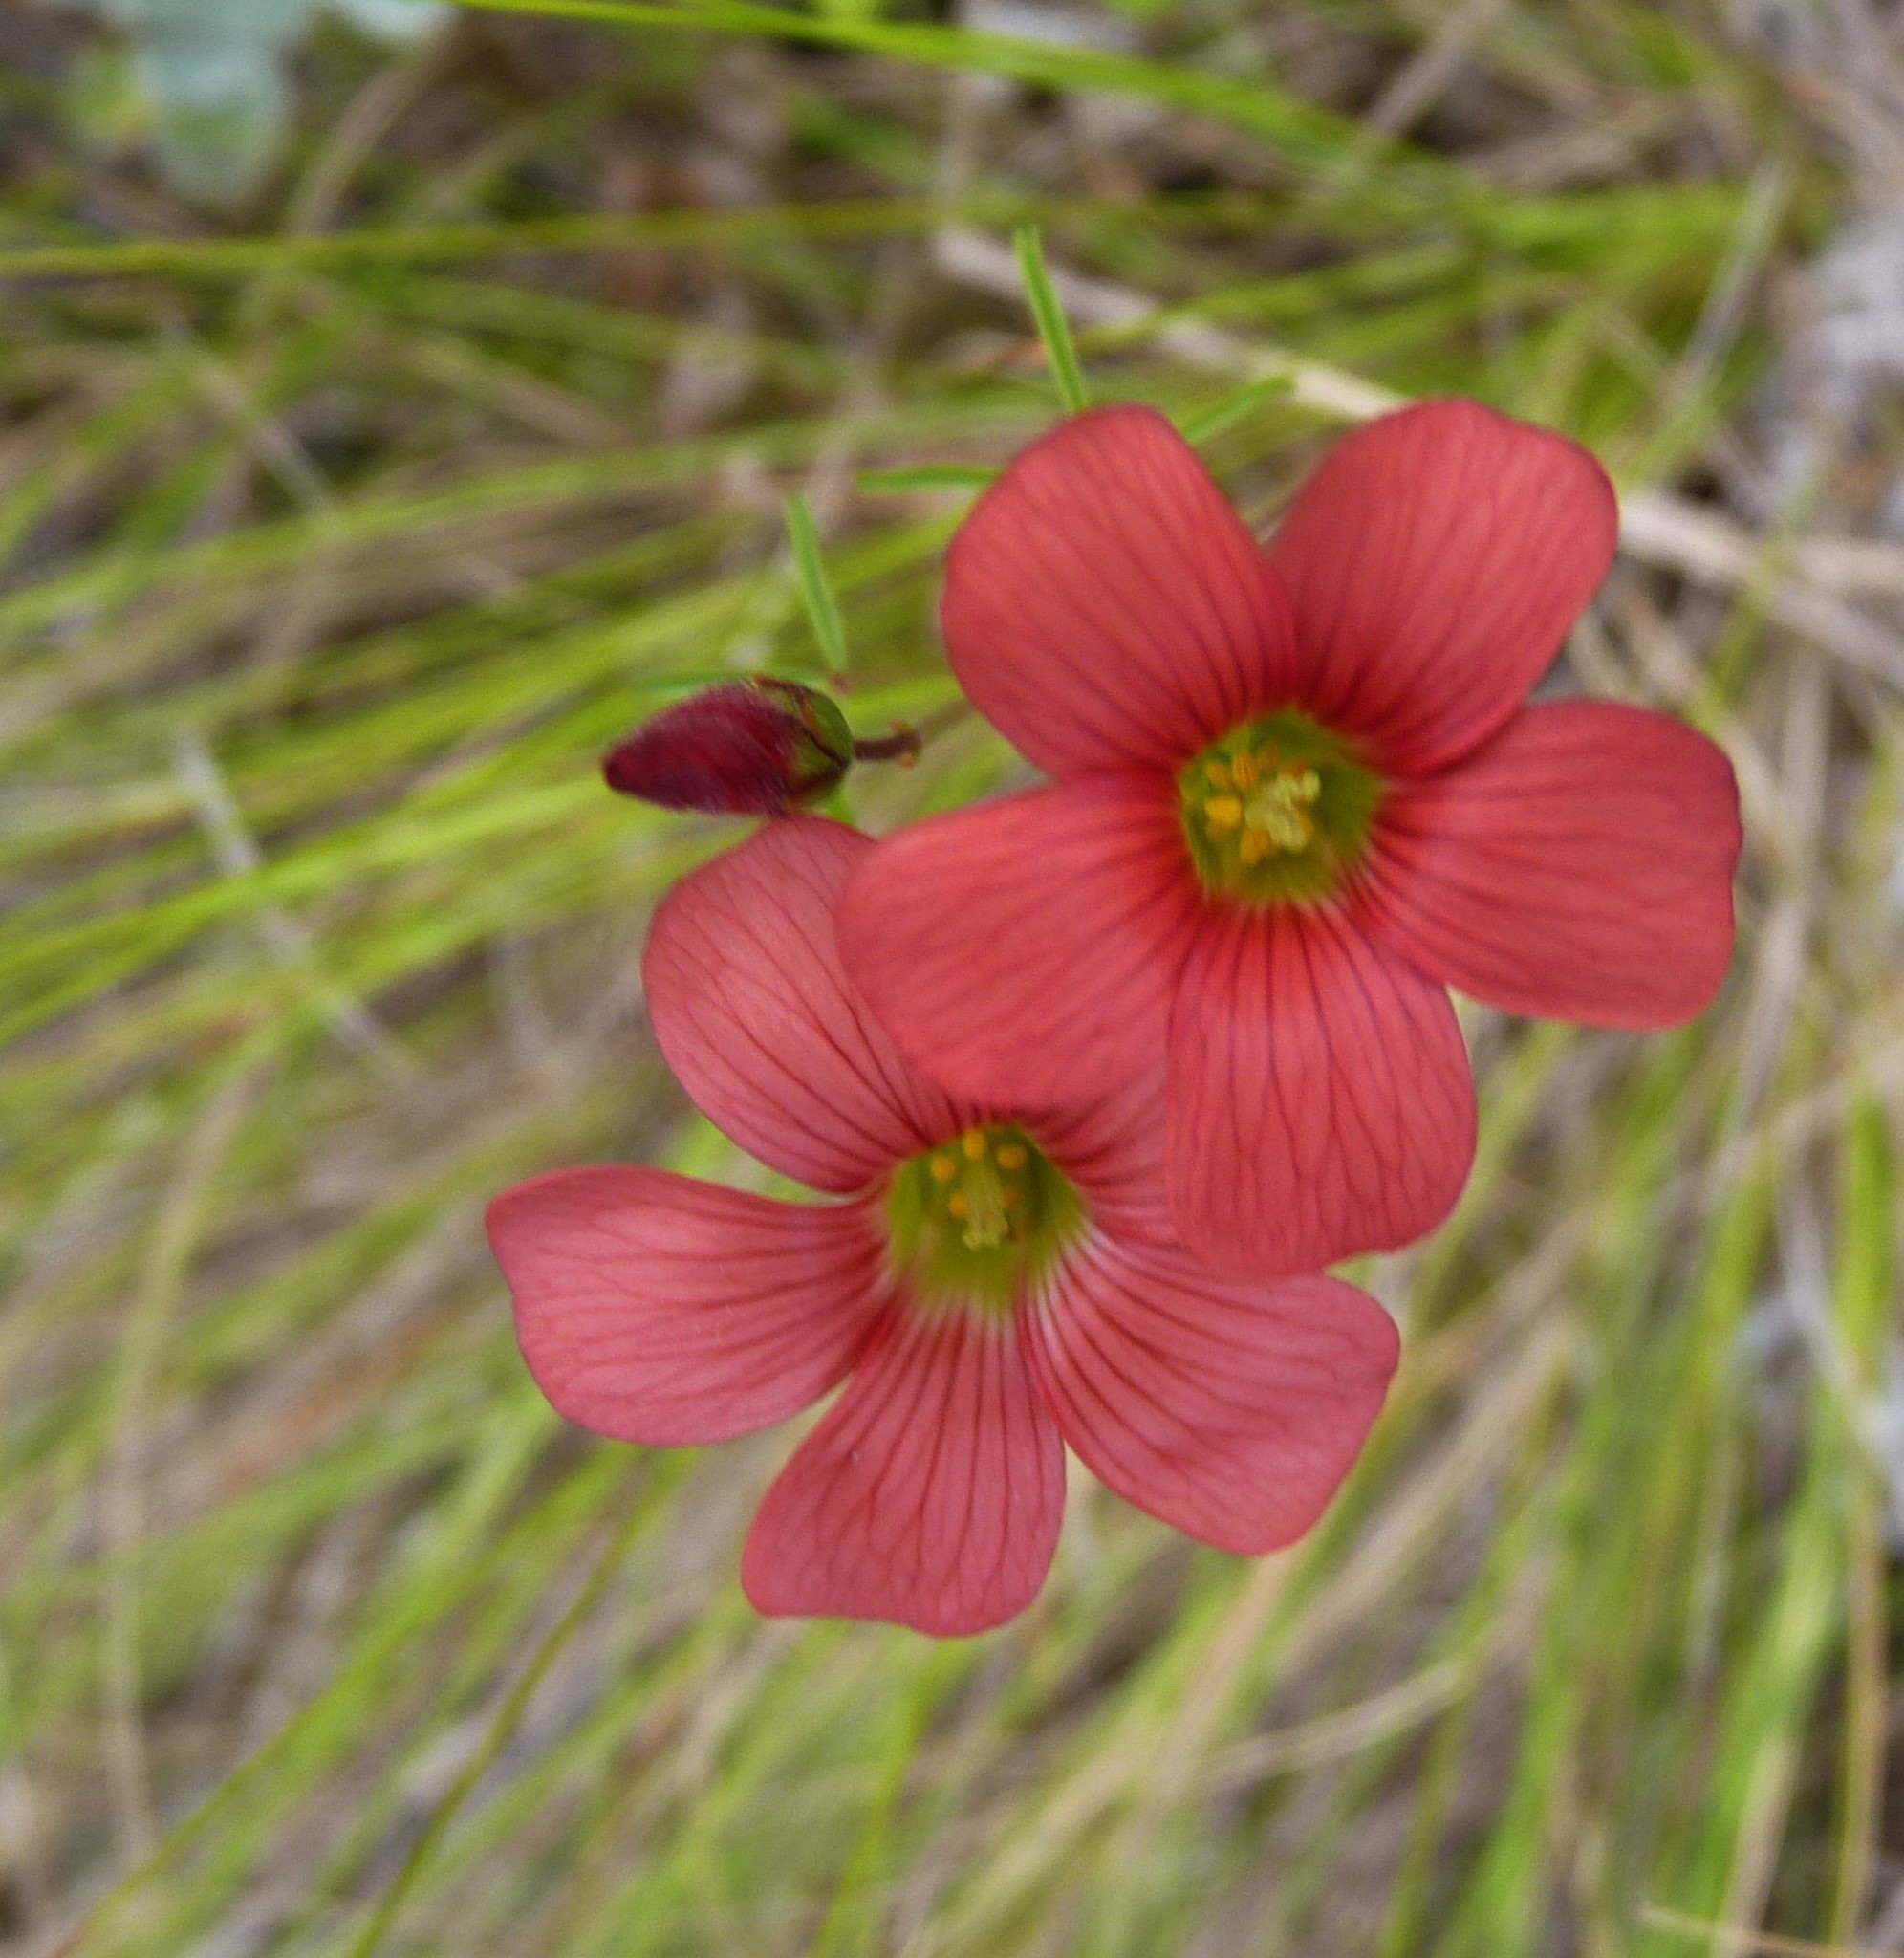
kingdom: Plantae
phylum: Tracheophyta
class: Magnoliopsida
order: Oxalidales
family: Oxalidaceae
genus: Oxalis
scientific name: Oxalis pendulifolia
